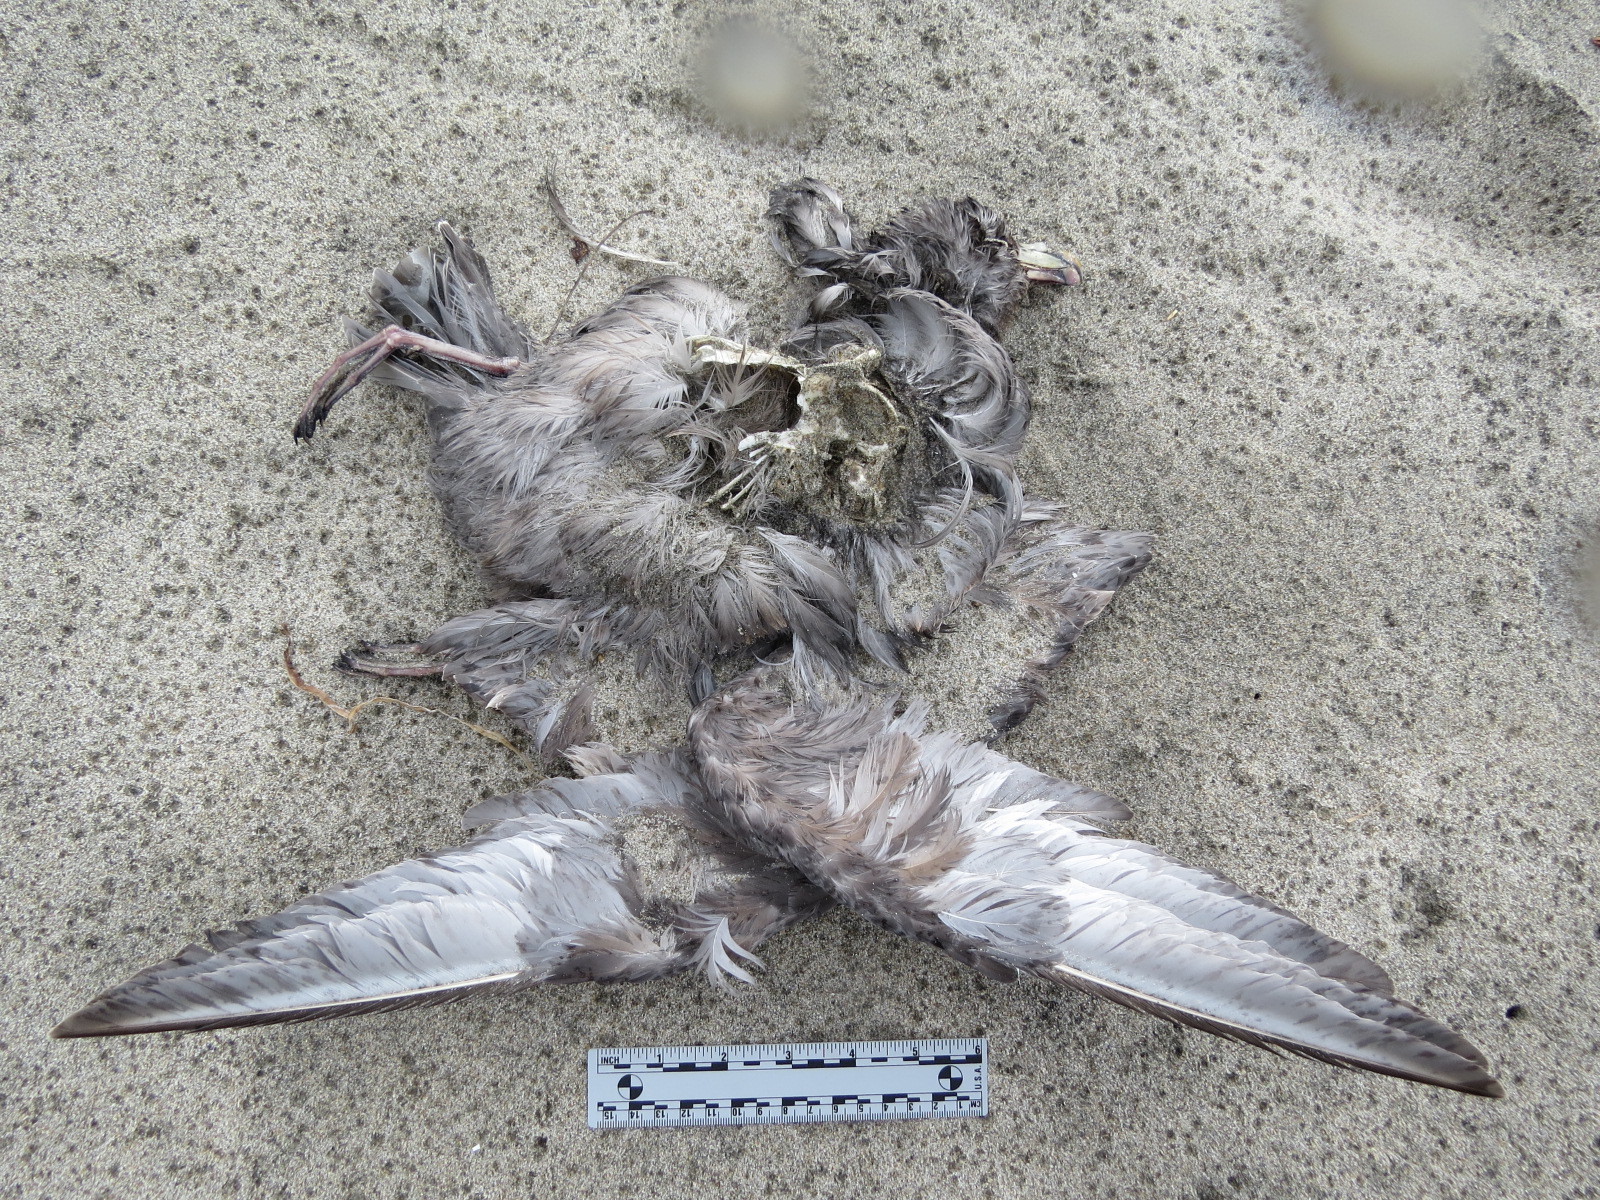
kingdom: Animalia
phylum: Chordata
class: Aves
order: Procellariiformes
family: Procellariidae
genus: Fulmarus
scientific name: Fulmarus glacialis
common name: Northern fulmar
